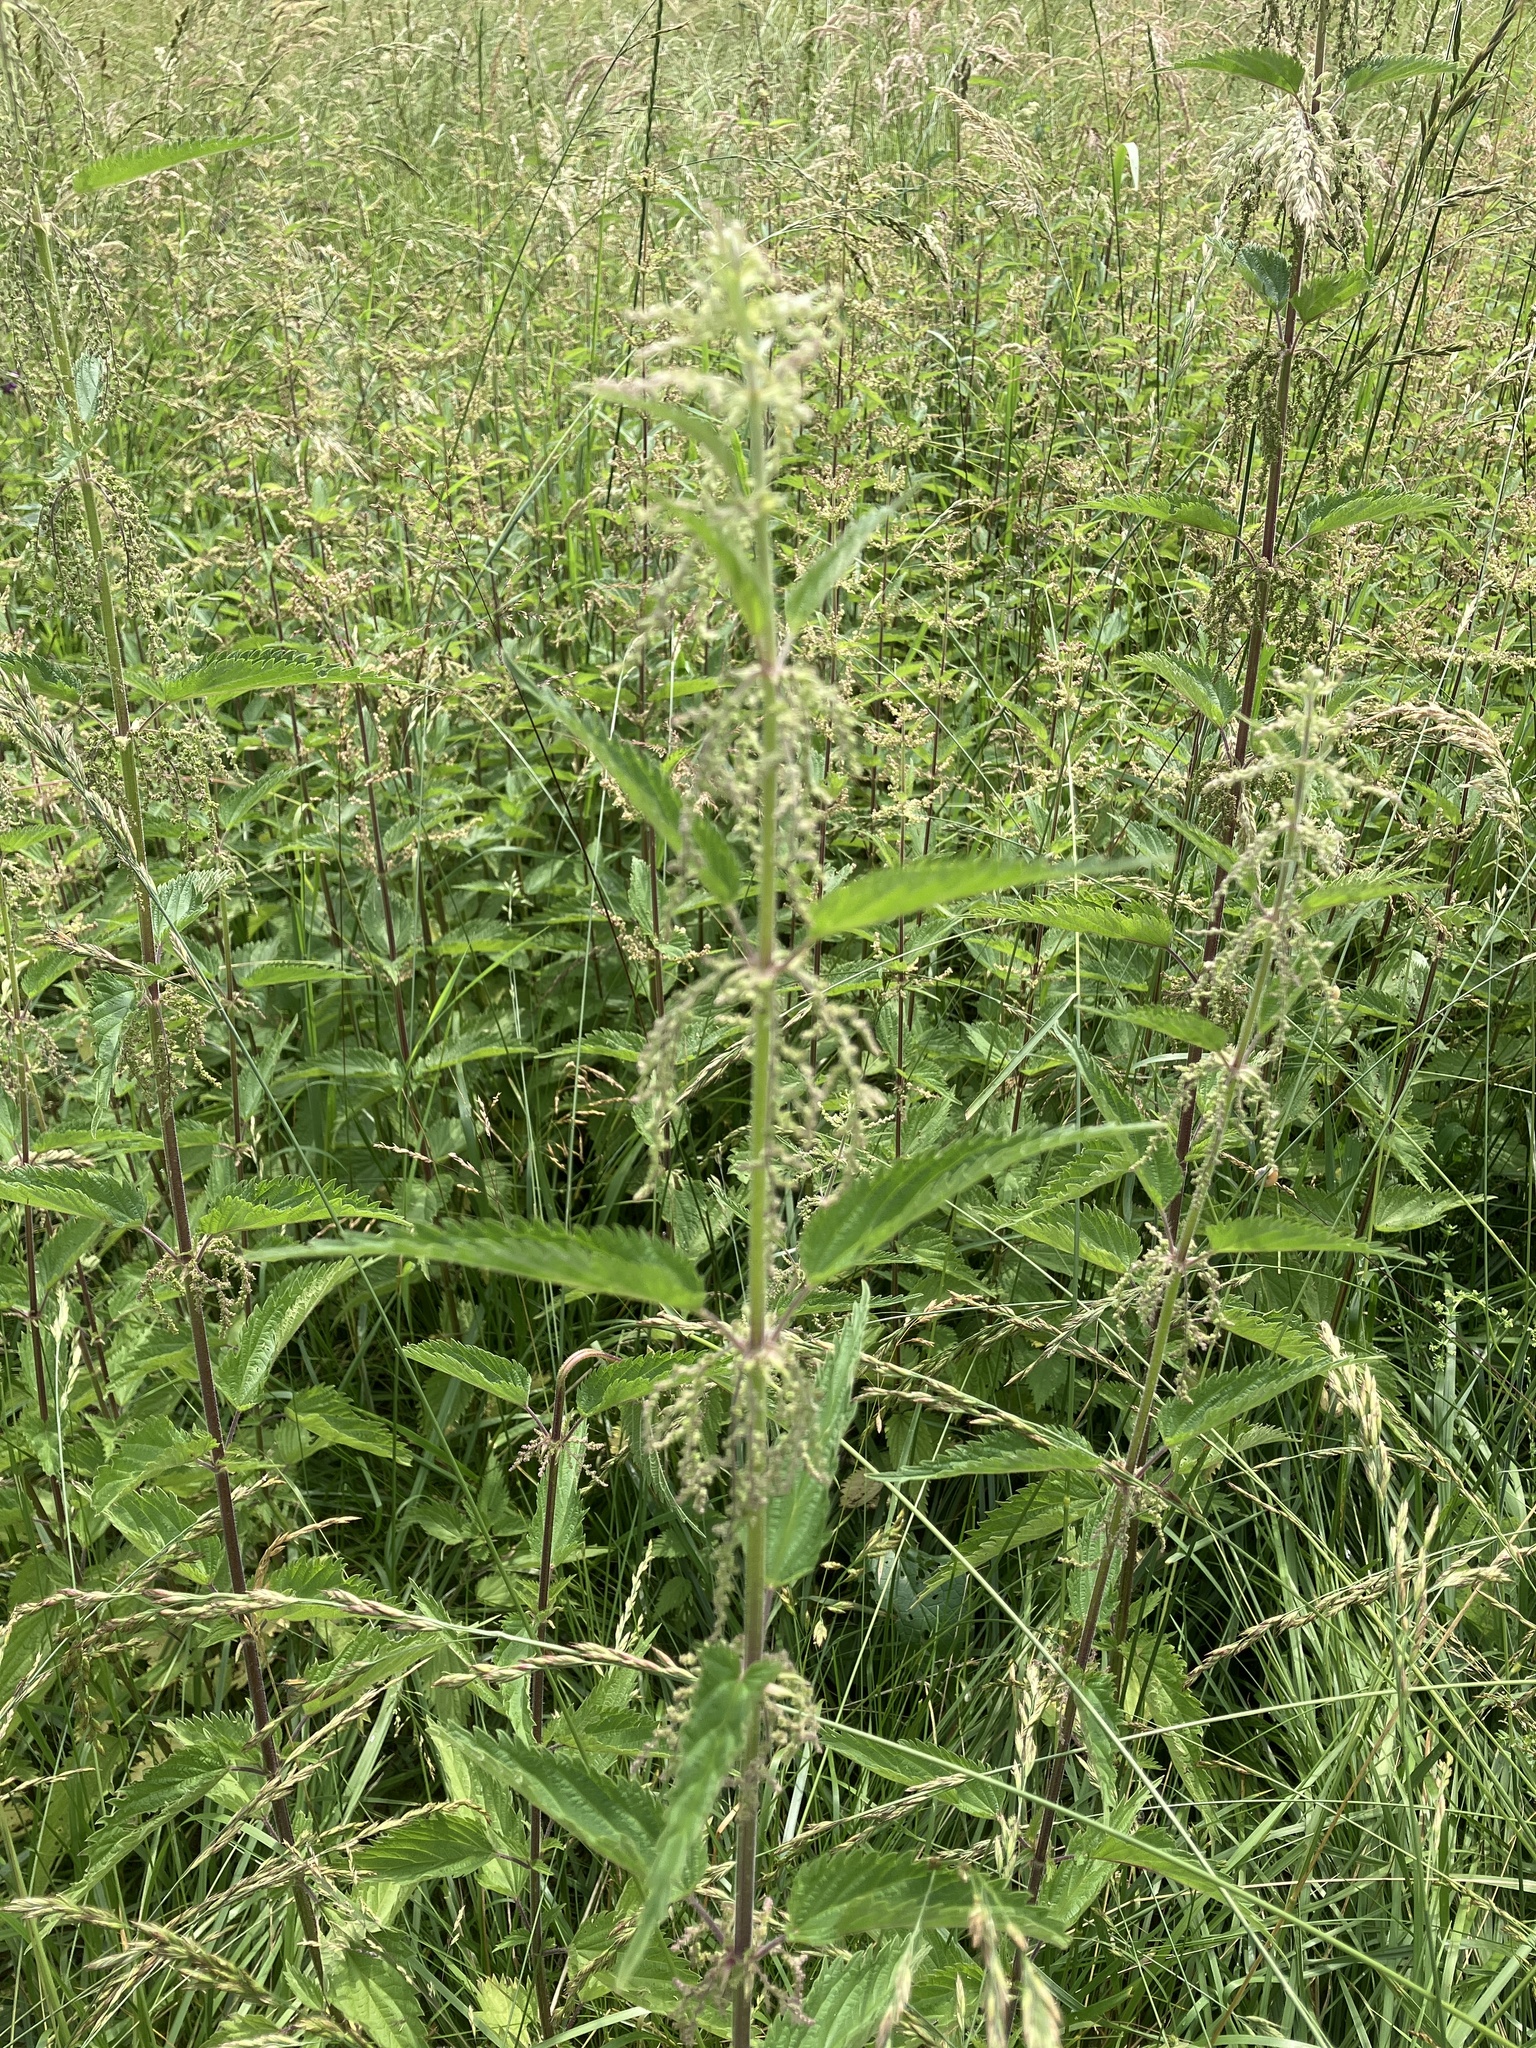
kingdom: Plantae
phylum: Tracheophyta
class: Magnoliopsida
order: Rosales
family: Urticaceae
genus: Urtica
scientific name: Urtica dioica
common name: Common nettle
